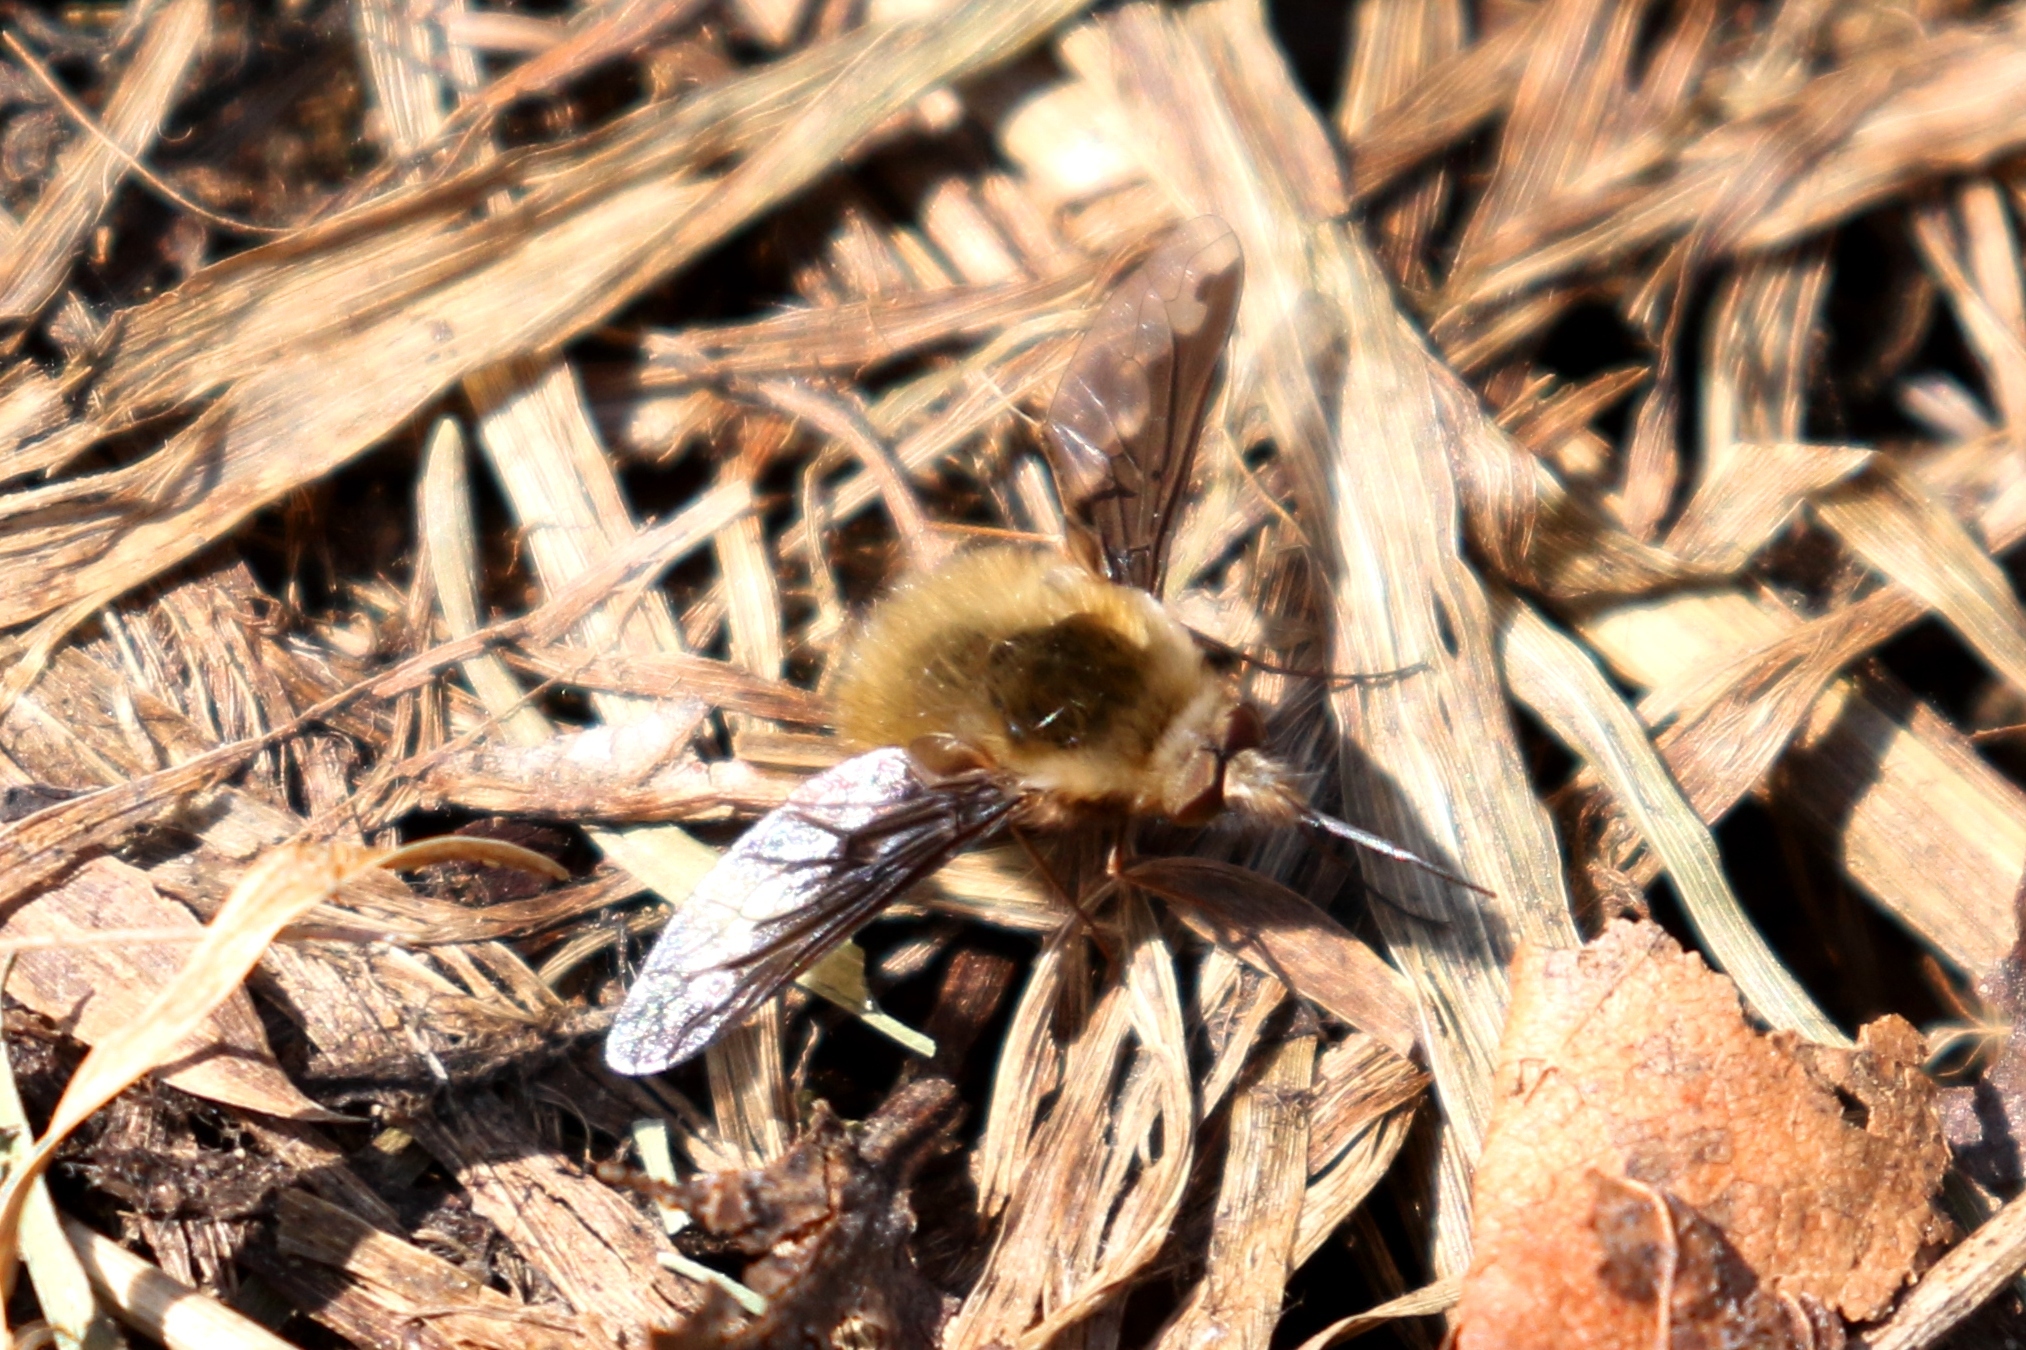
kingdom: Animalia
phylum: Arthropoda
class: Insecta
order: Diptera
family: Bombyliidae
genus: Bombylius
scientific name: Bombylius major
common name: Bee fly
